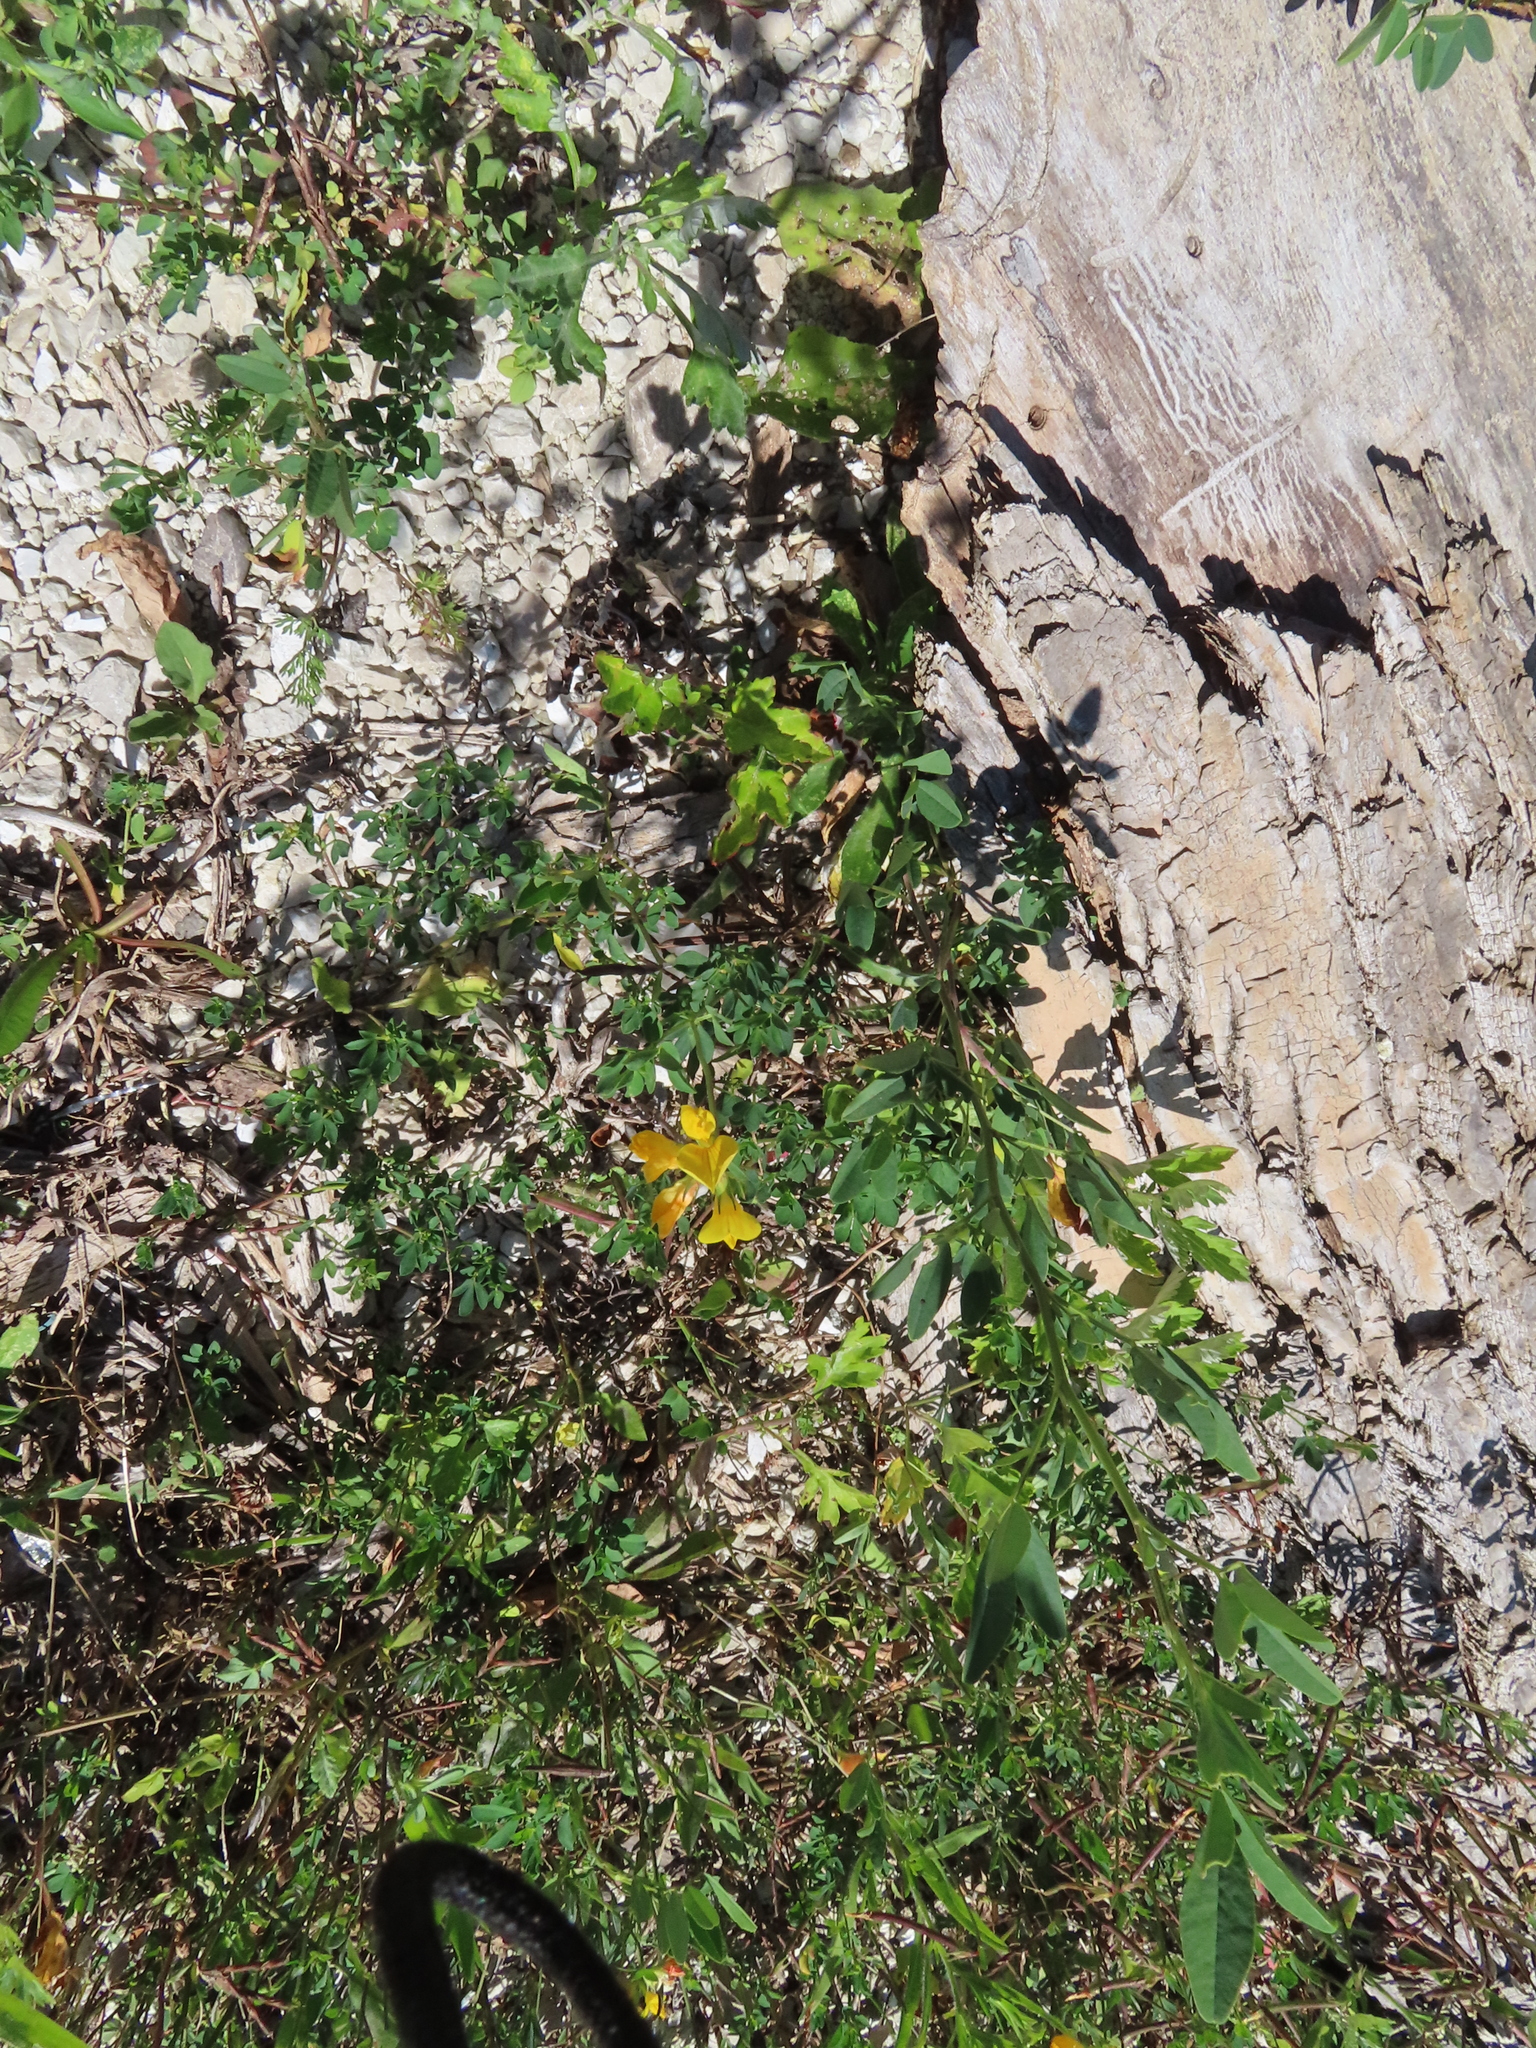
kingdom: Plantae
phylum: Tracheophyta
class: Magnoliopsida
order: Fabales
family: Fabaceae
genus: Lotus
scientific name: Lotus corniculatus
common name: Common bird's-foot-trefoil
